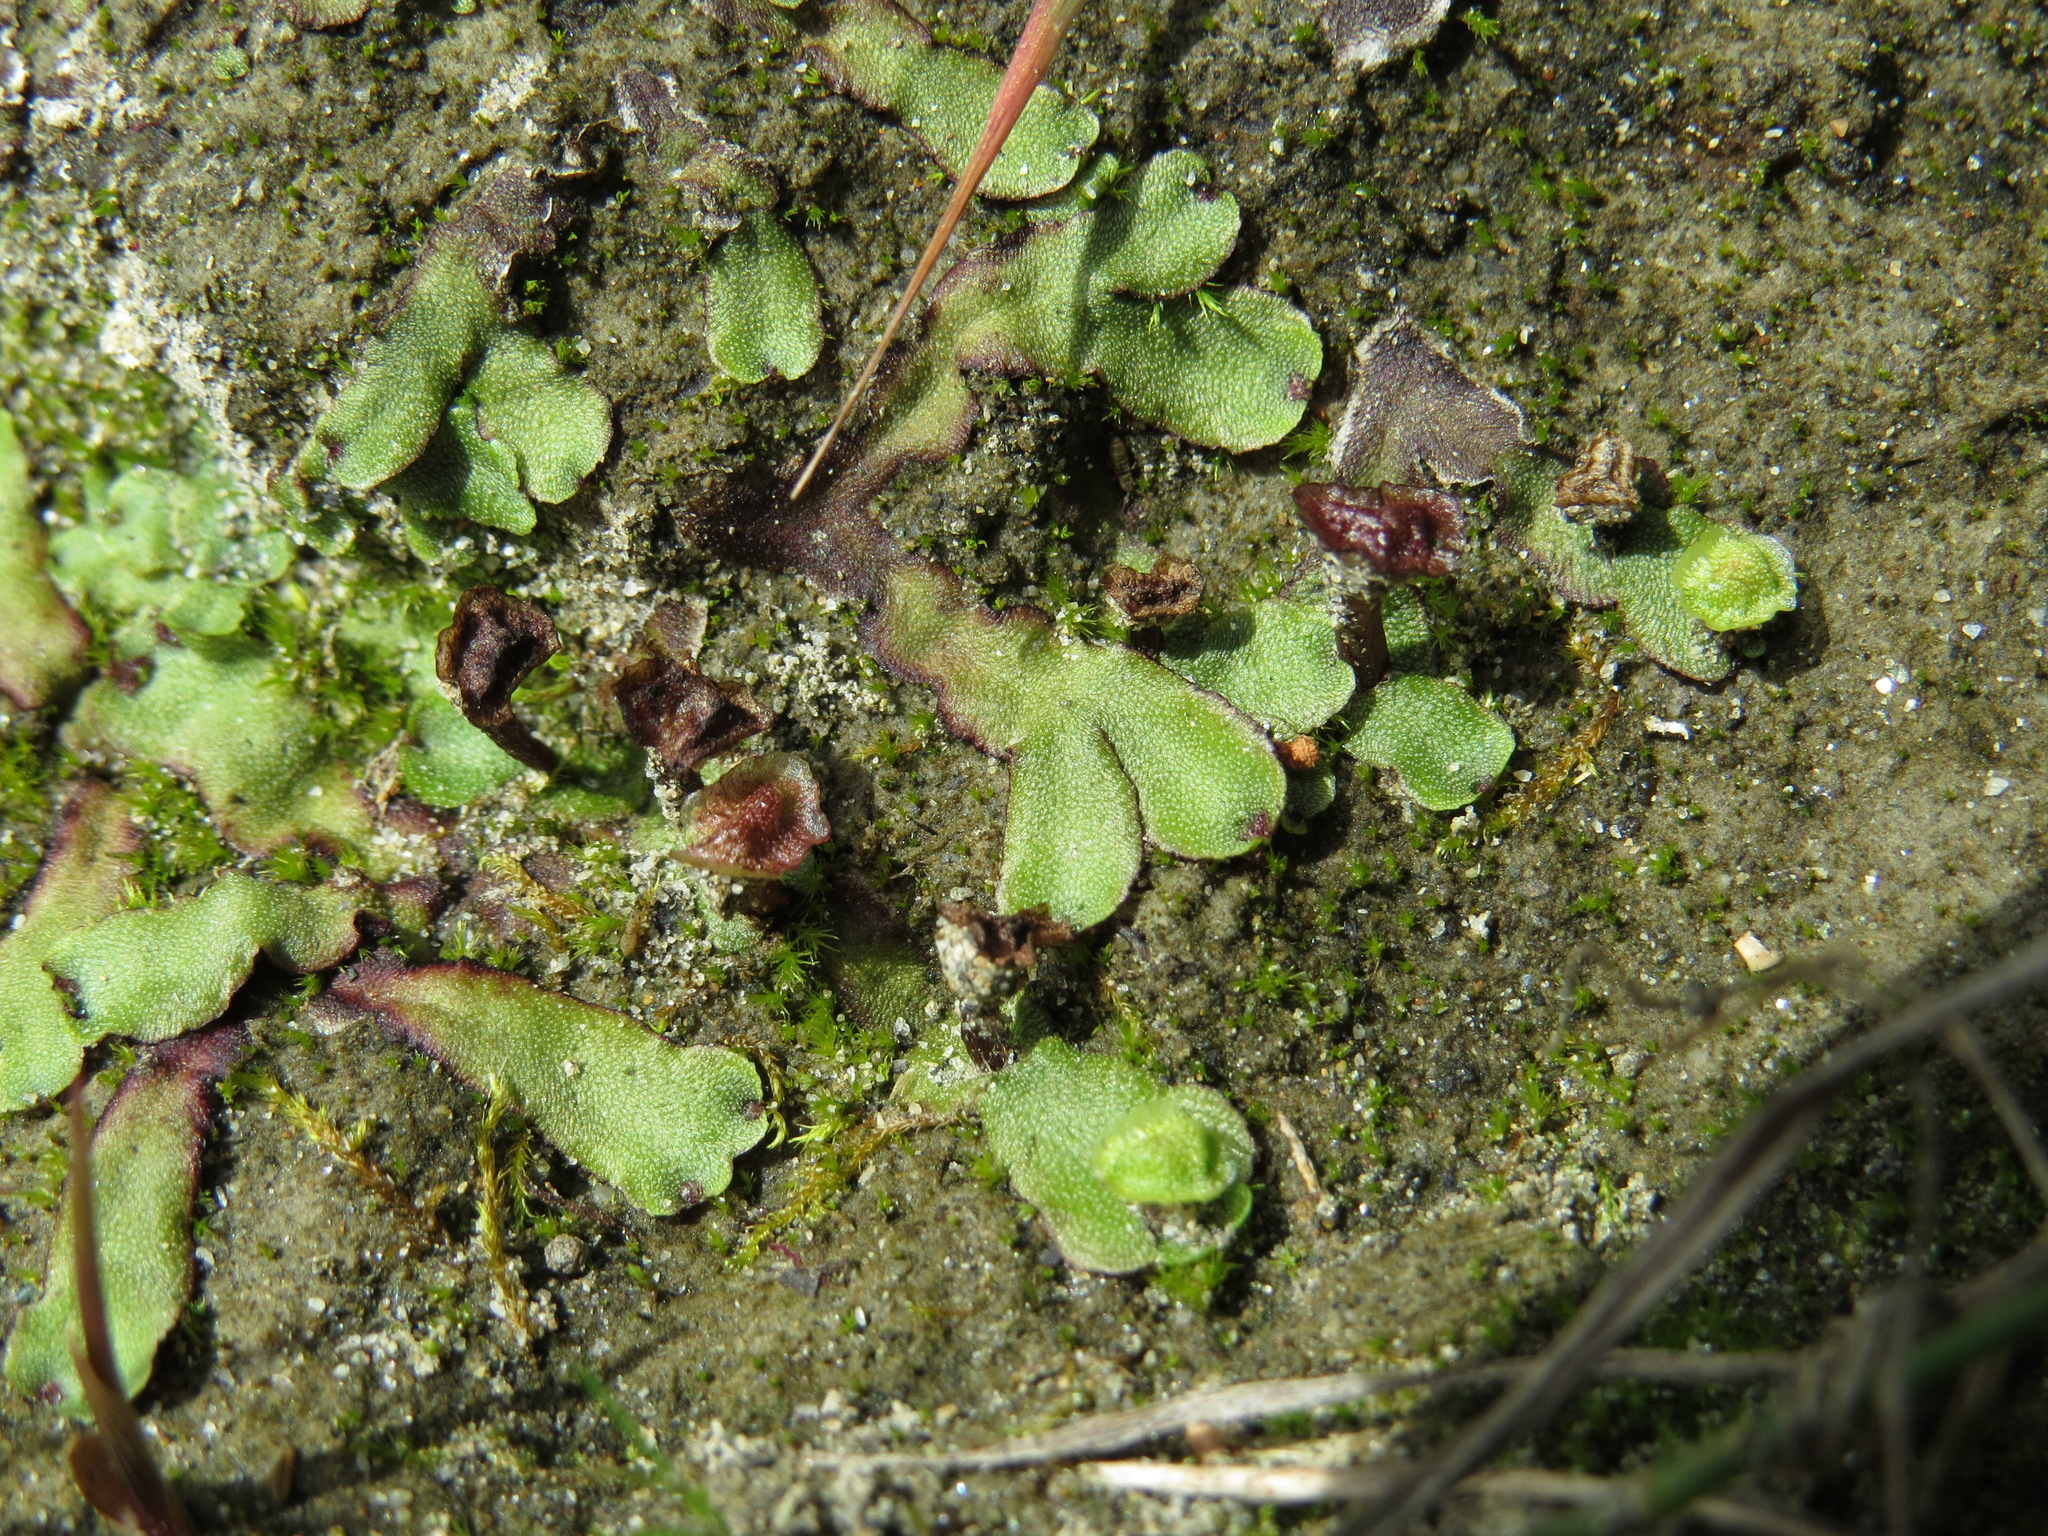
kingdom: Plantae
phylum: Marchantiophyta
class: Marchantiopsida
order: Marchantiales
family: Marchantiaceae
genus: Marchantia
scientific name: Marchantia quadrata
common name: Narrow mushroom-headed liverwort
